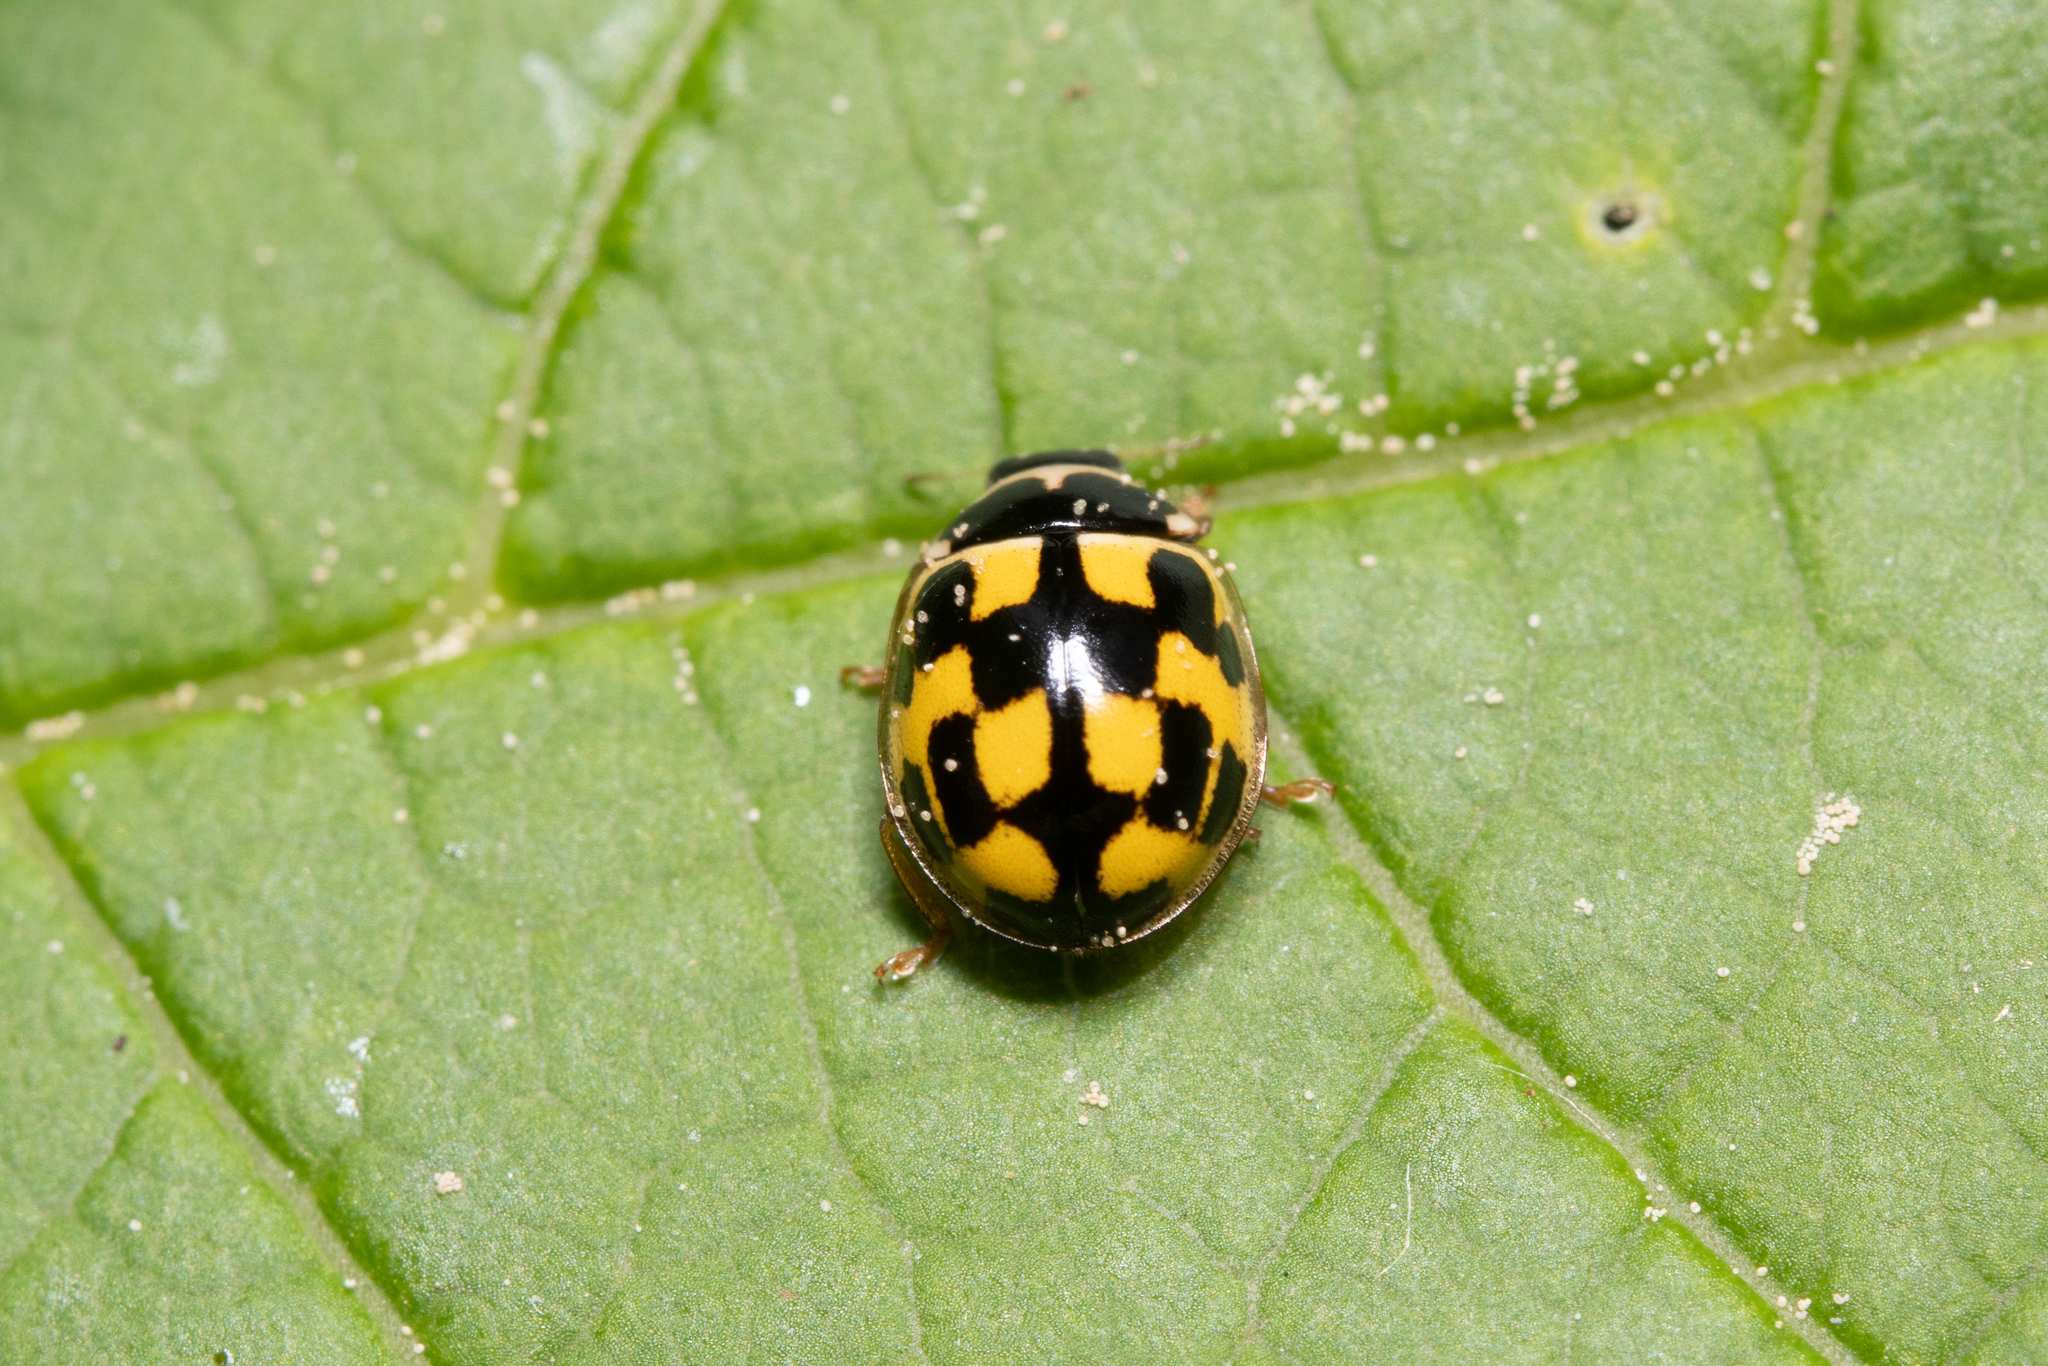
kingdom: Animalia
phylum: Arthropoda
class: Insecta
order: Coleoptera
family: Coccinellidae
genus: Propylaea
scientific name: Propylaea quatuordecimpunctata
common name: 14-spotted ladybird beetle
